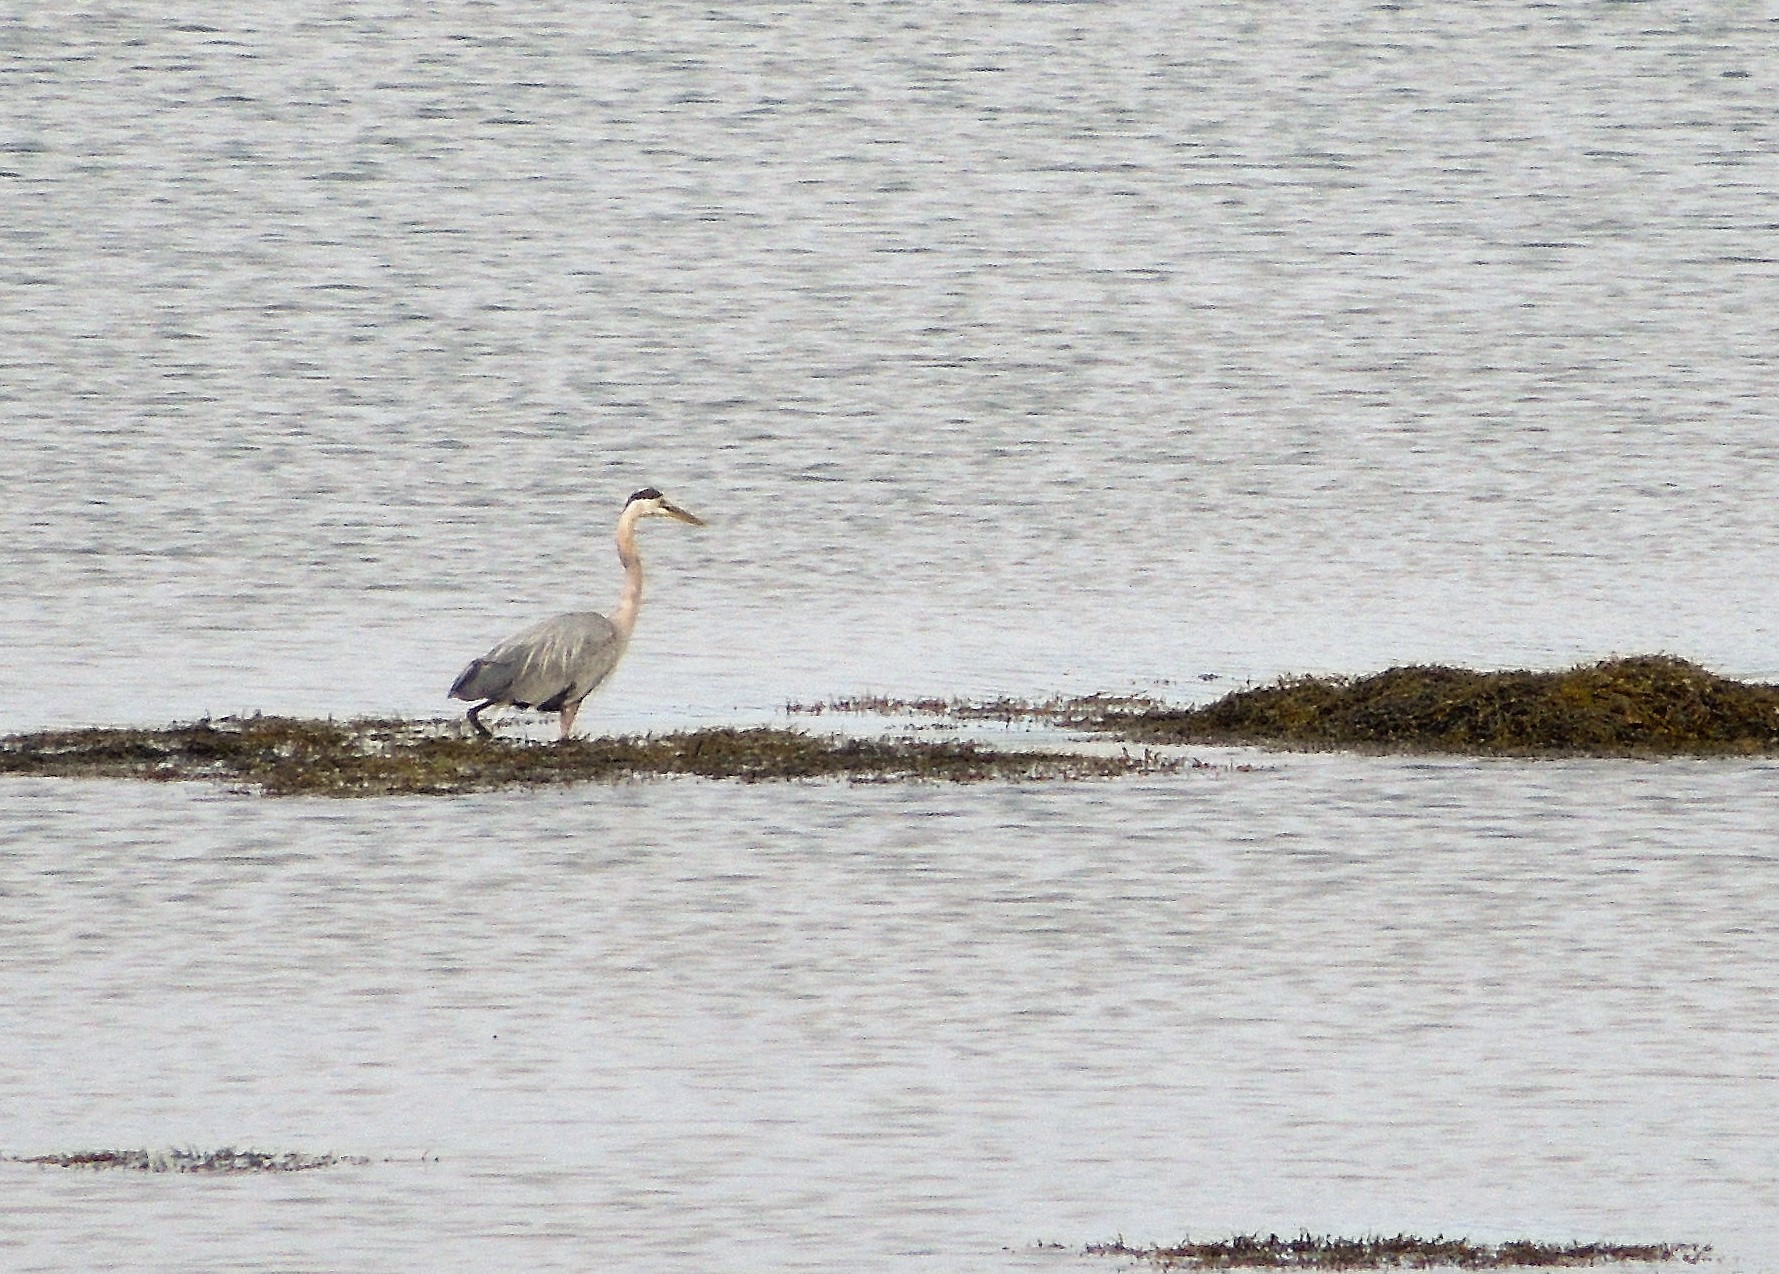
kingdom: Animalia
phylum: Chordata
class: Aves
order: Pelecaniformes
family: Ardeidae
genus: Ardea
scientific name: Ardea herodias
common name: Great blue heron
